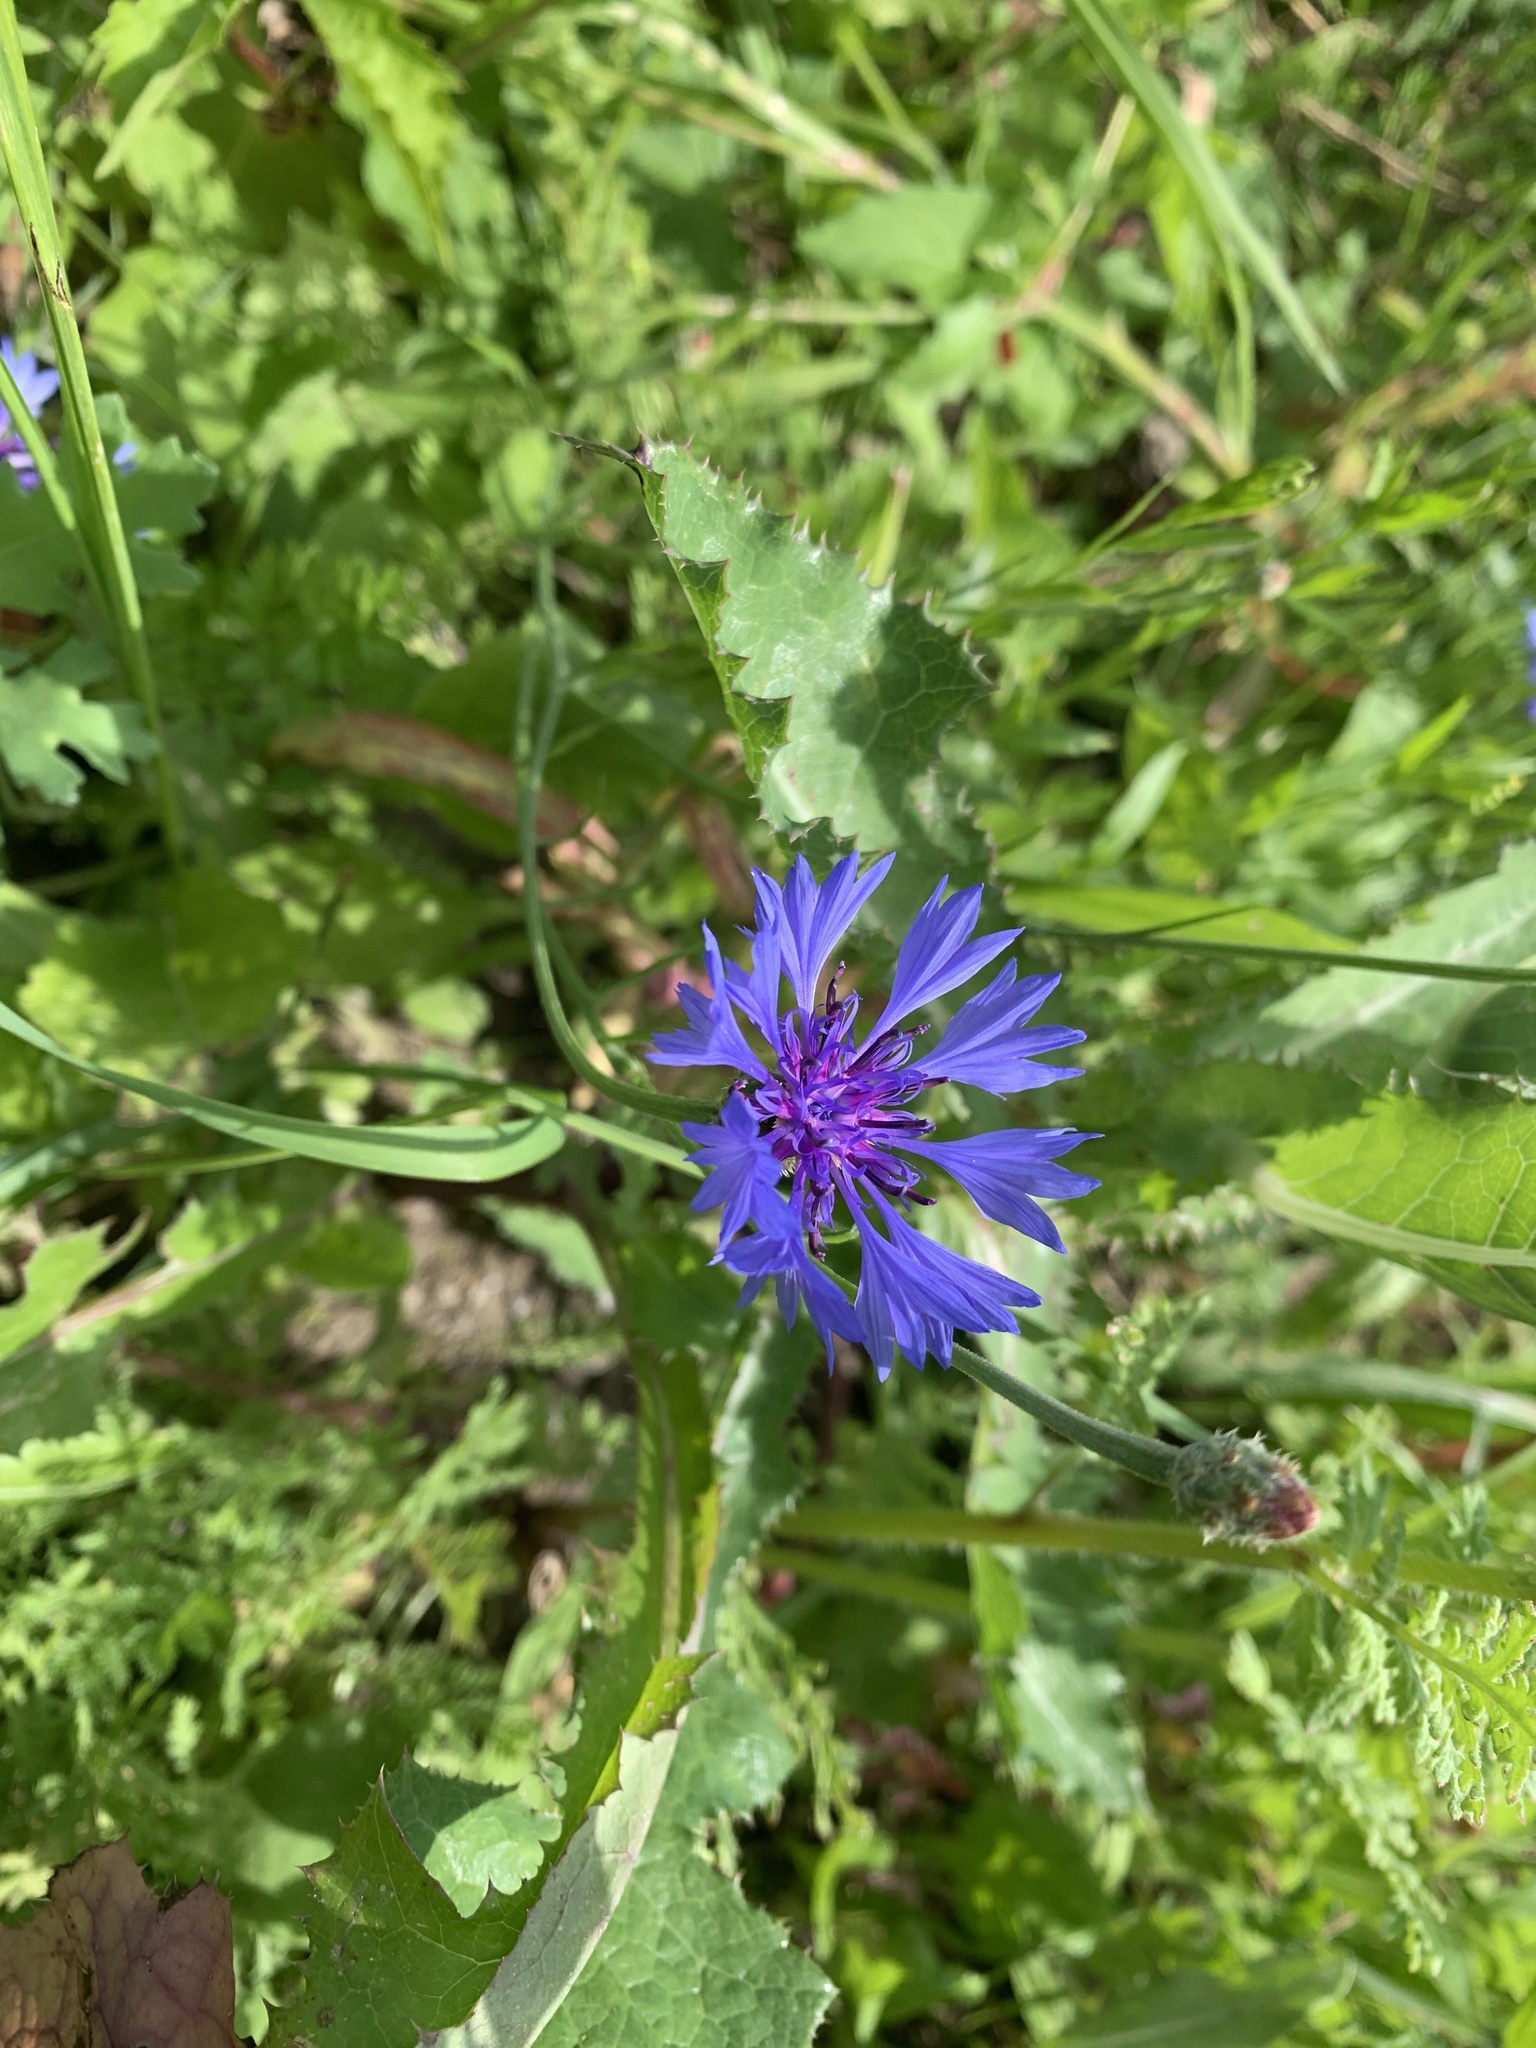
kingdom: Plantae
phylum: Tracheophyta
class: Magnoliopsida
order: Asterales
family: Asteraceae
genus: Centaurea
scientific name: Centaurea cyanus
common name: Cornflower
